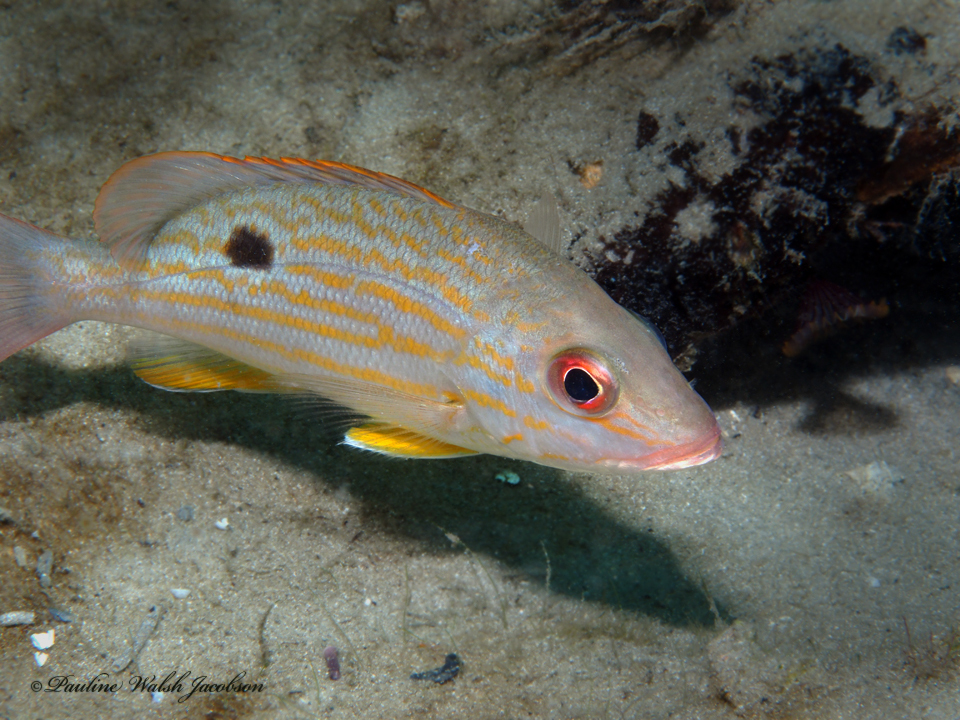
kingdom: Animalia
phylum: Chordata
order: Perciformes
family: Lutjanidae
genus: Lutjanus
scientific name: Lutjanus synagris
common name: Lane snapper
